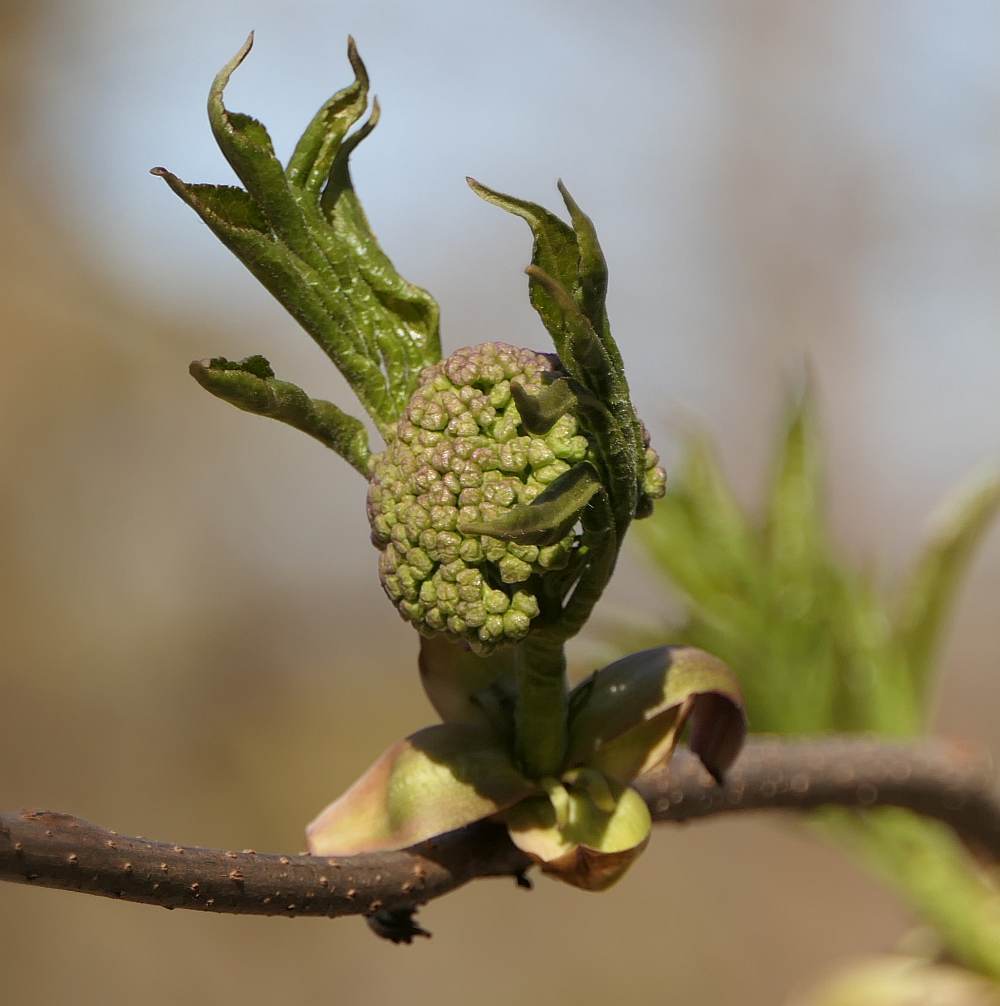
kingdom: Plantae
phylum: Tracheophyta
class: Magnoliopsida
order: Dipsacales
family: Viburnaceae
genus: Sambucus
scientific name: Sambucus racemosa
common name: Red-berried elder
